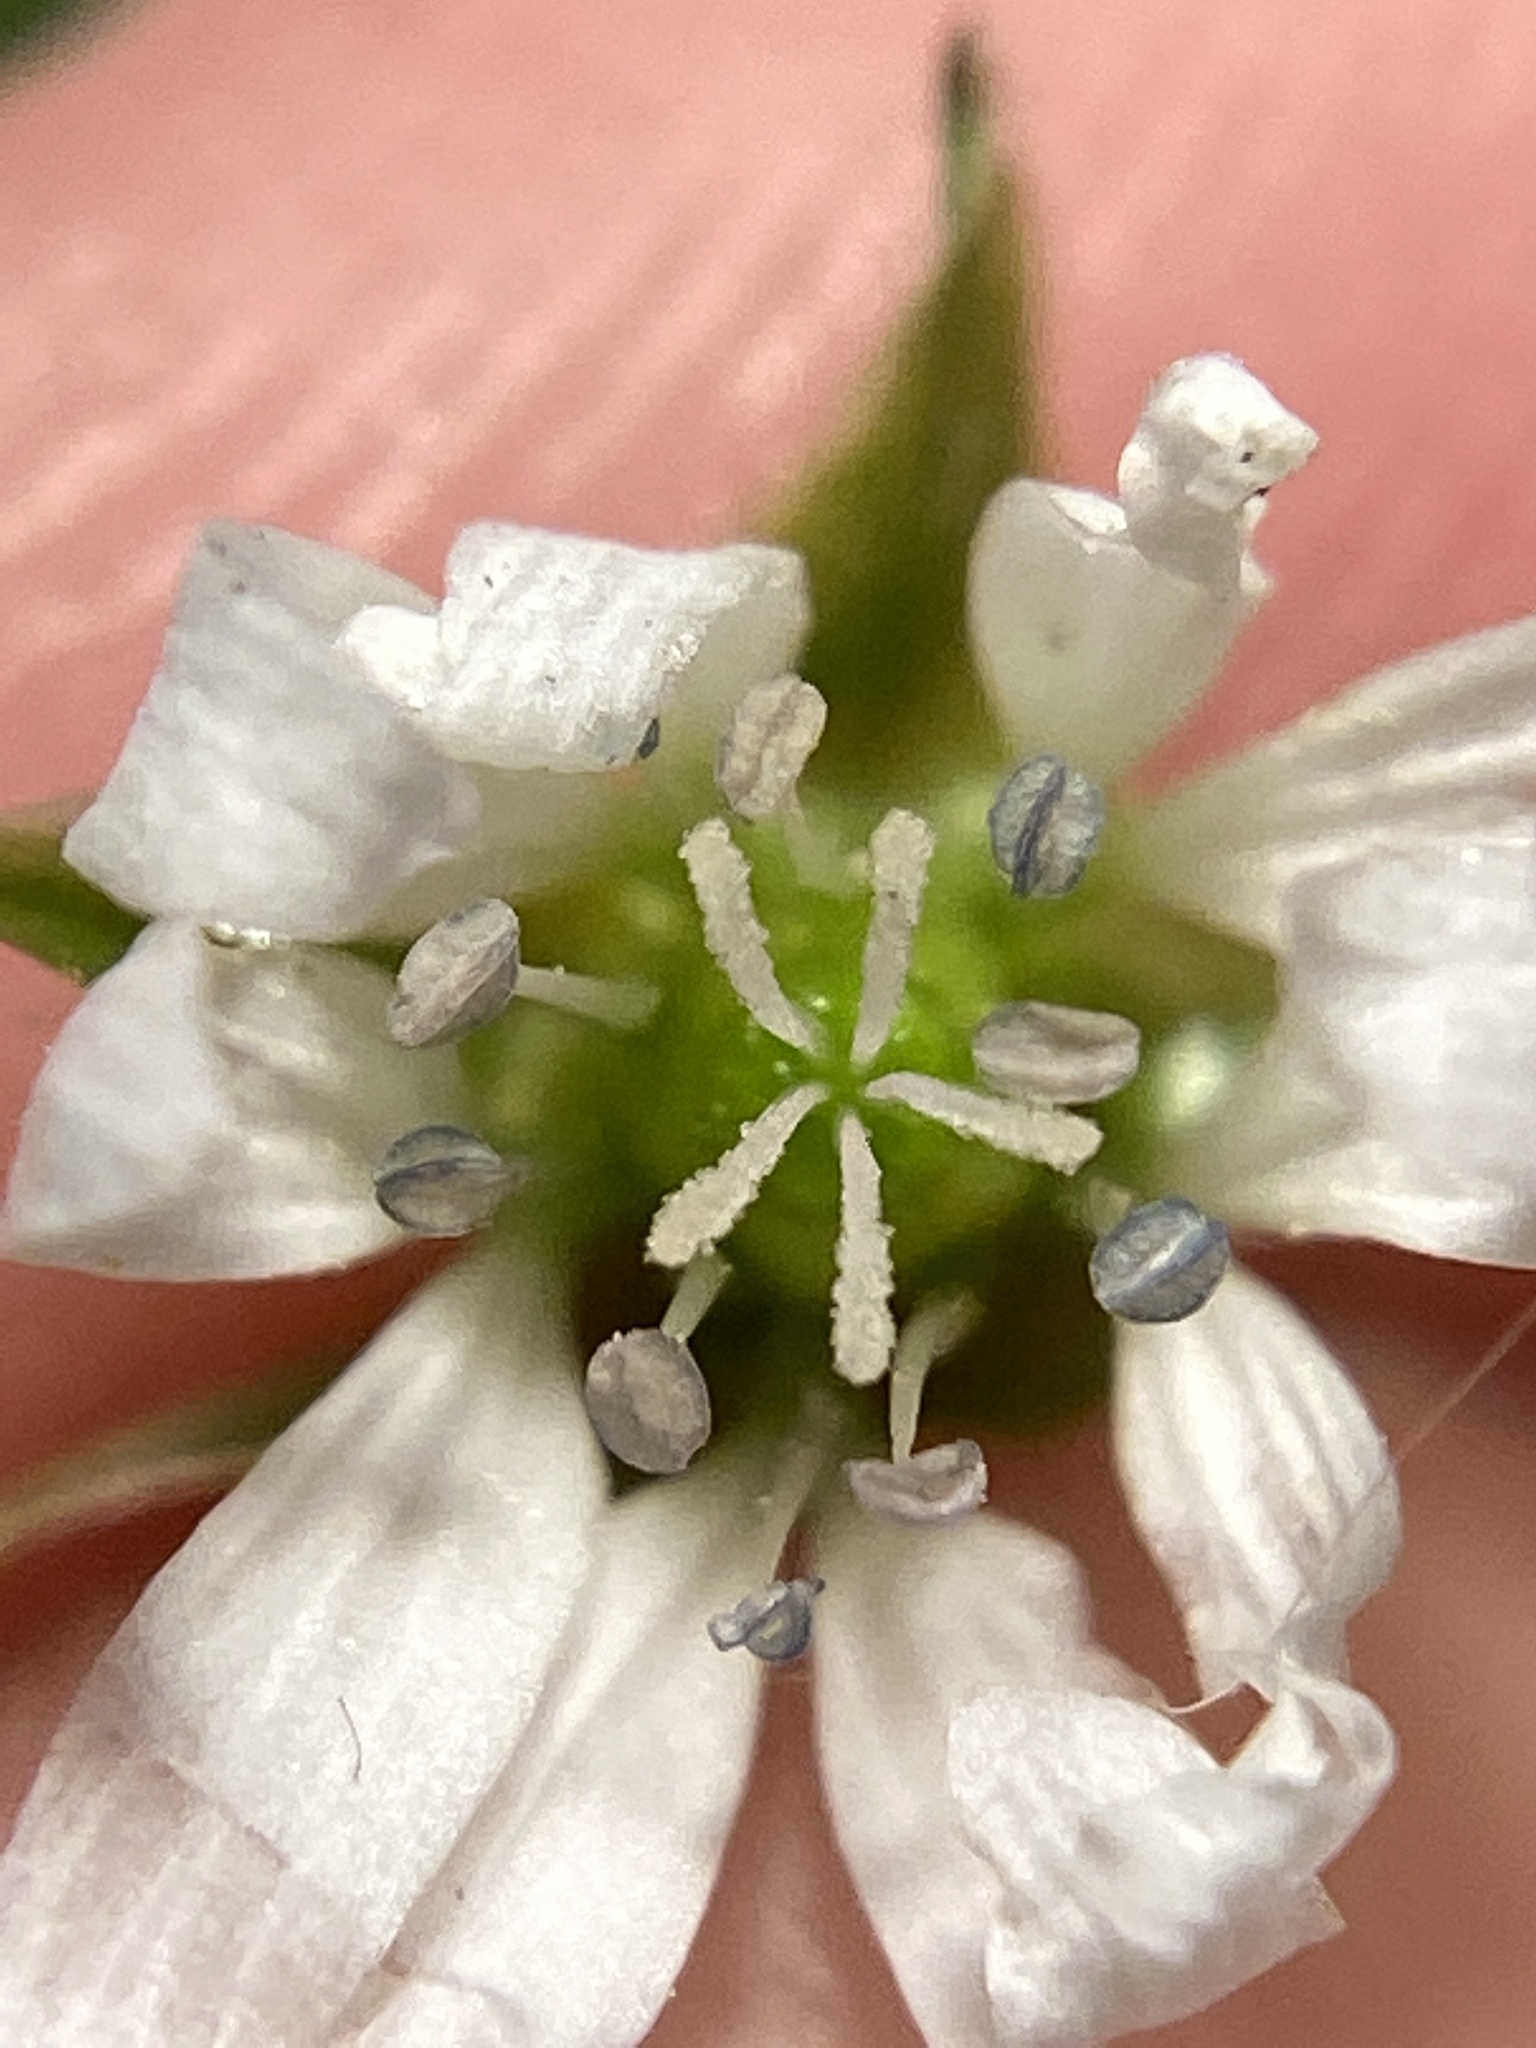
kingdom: Plantae
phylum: Tracheophyta
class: Magnoliopsida
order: Caryophyllales
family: Caryophyllaceae
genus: Stellaria
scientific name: Stellaria aquatica
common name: Water chickweed
